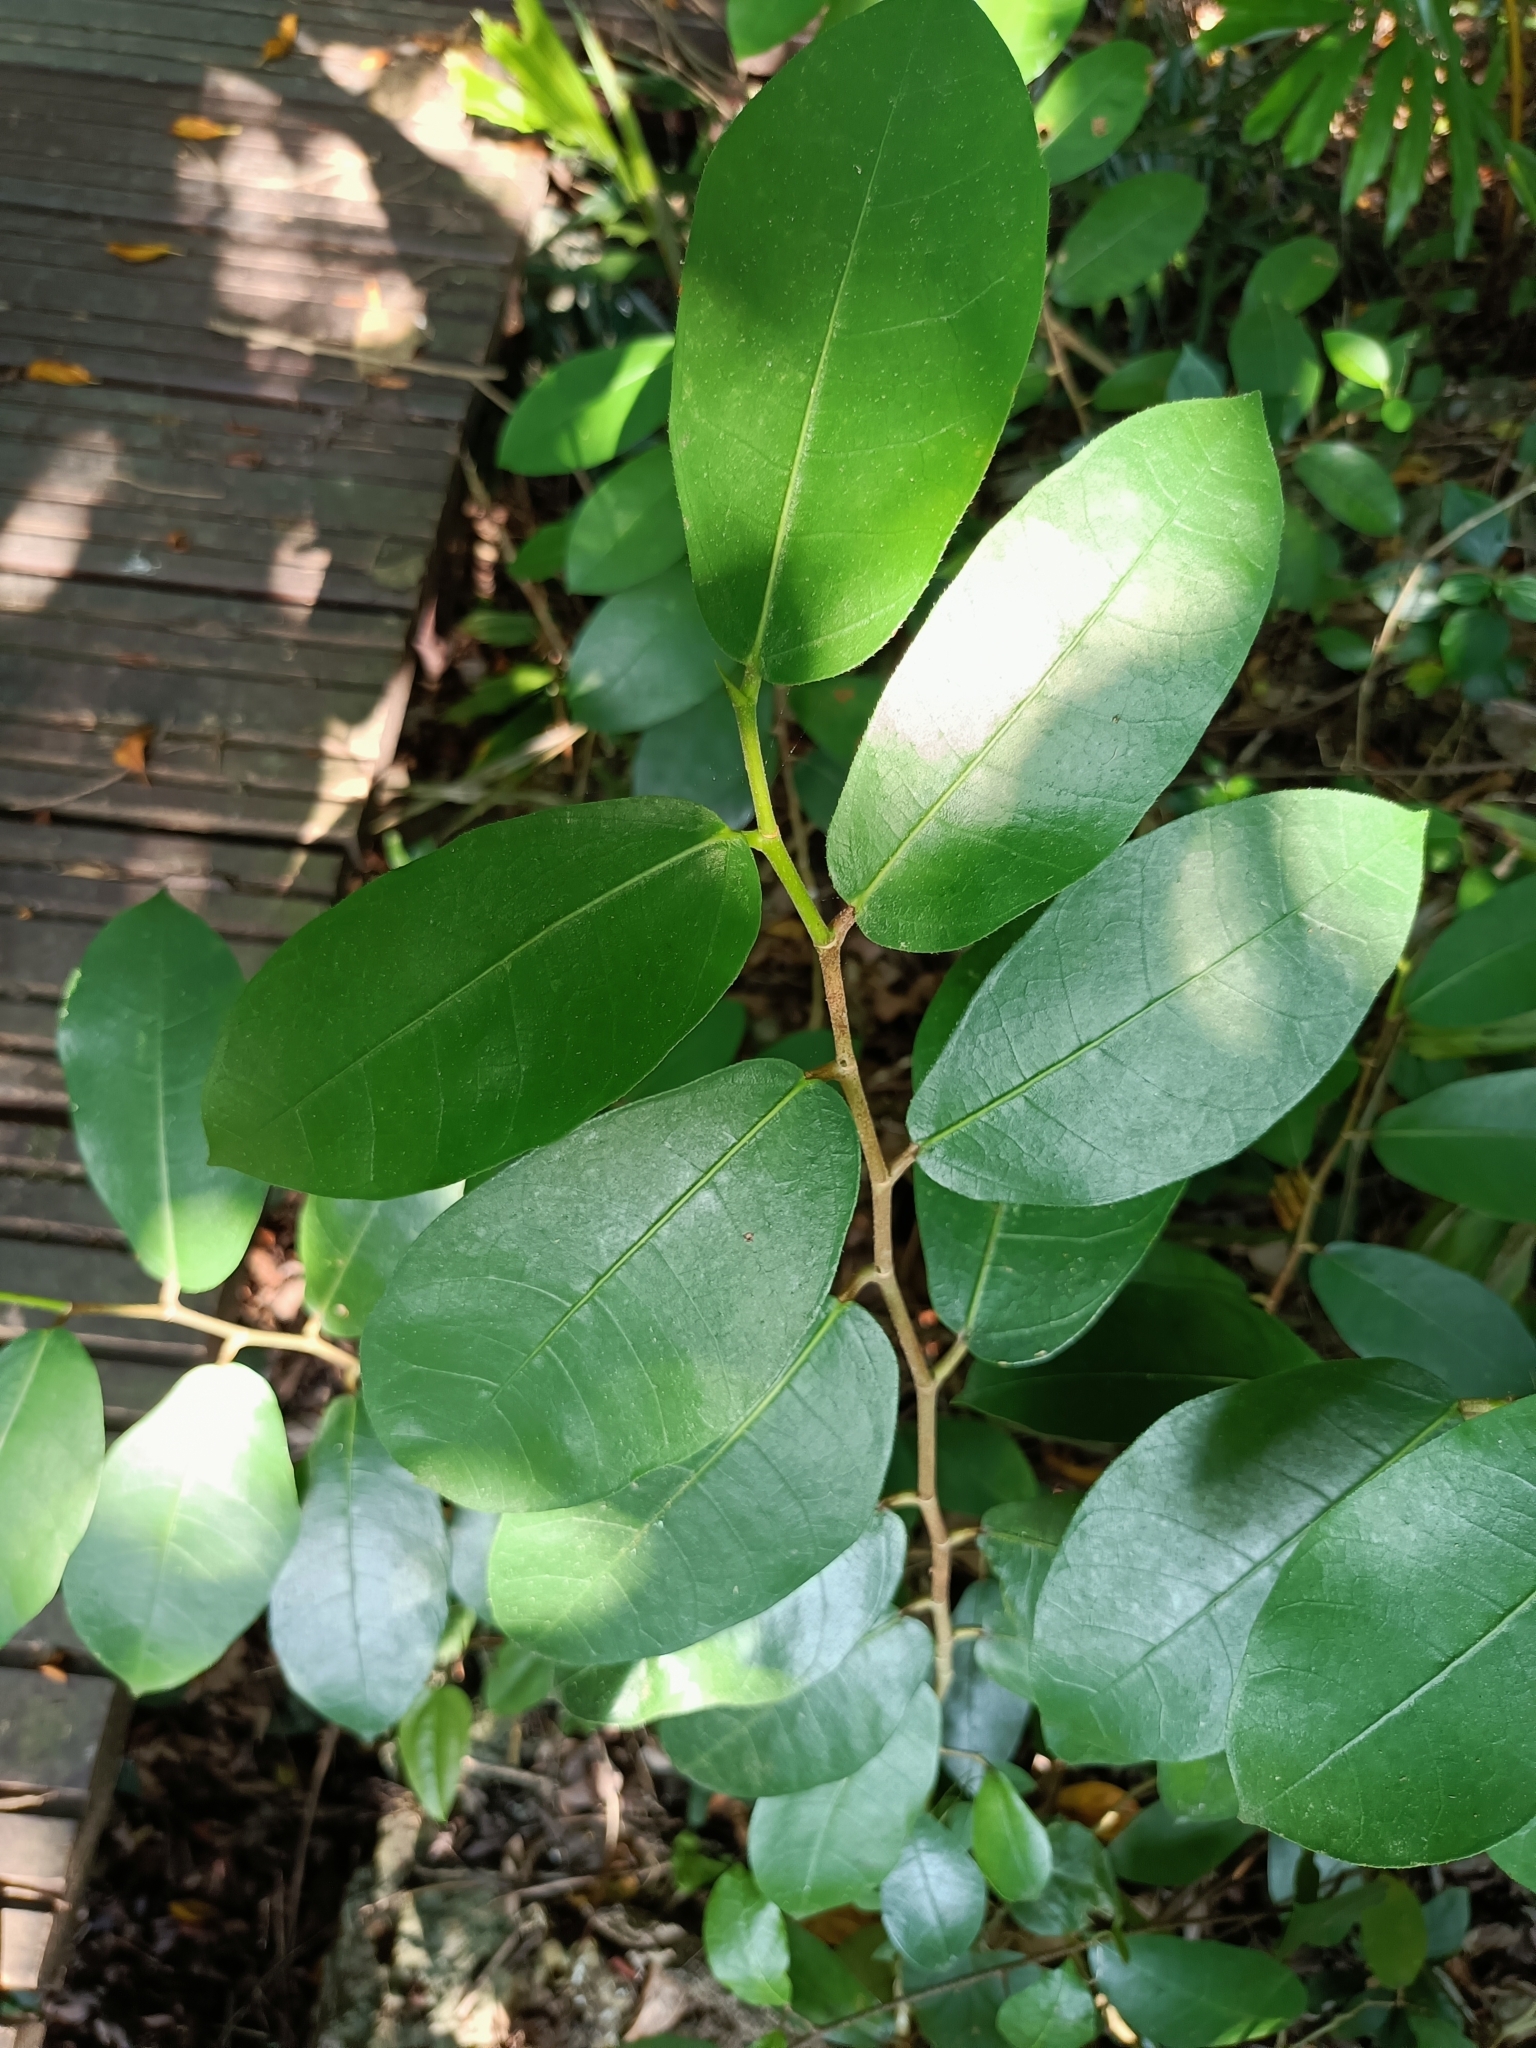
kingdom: Plantae
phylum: Tracheophyta
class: Magnoliopsida
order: Rosales
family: Moraceae
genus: Ficus
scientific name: Ficus tinctoria
